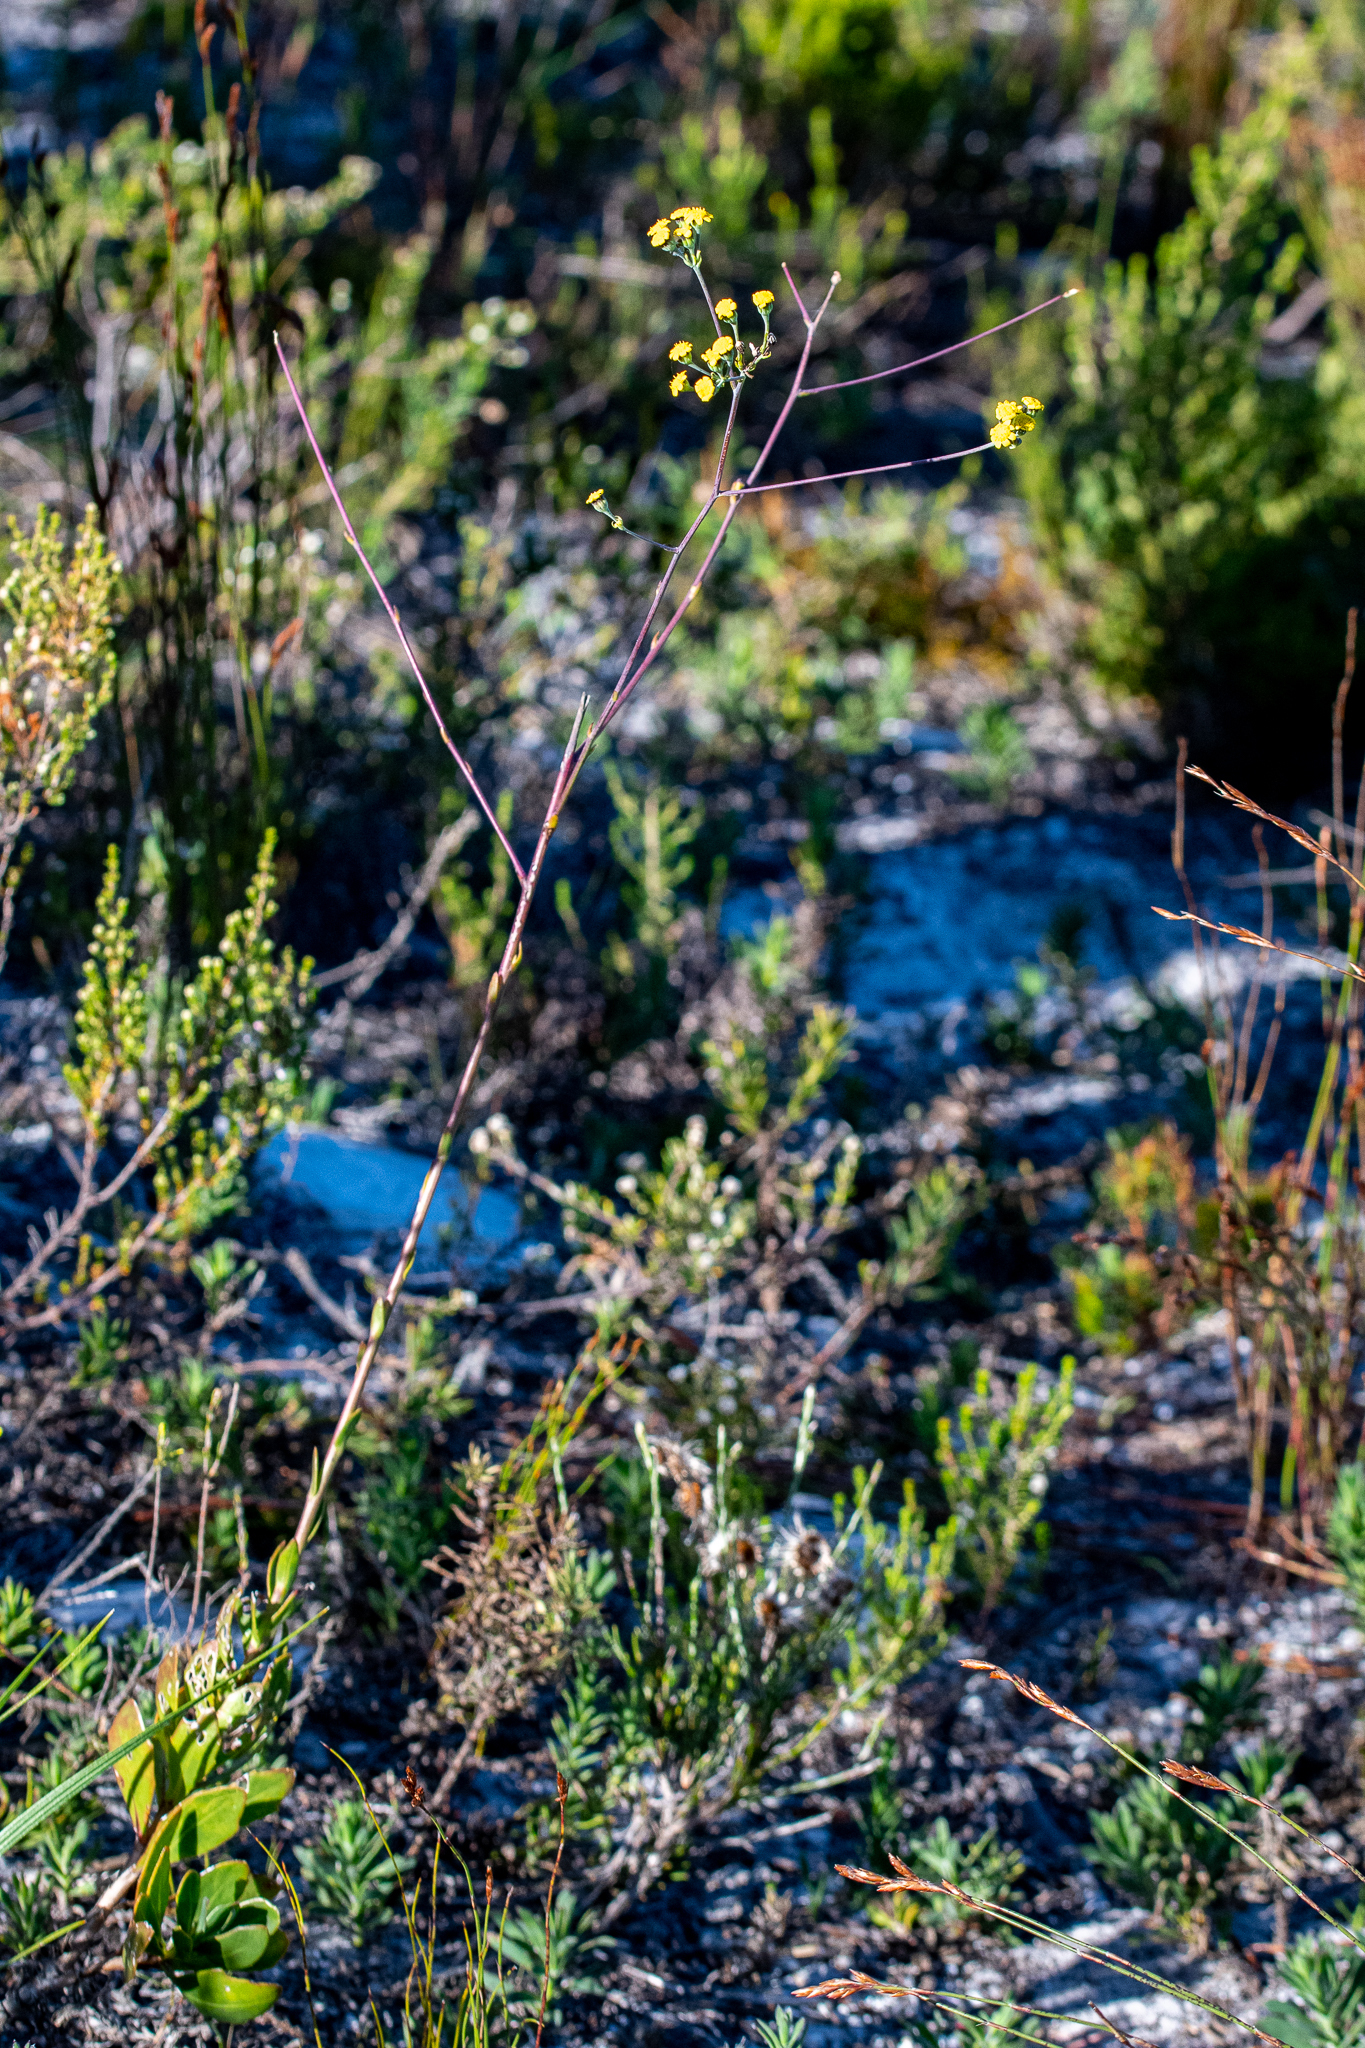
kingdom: Plantae
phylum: Tracheophyta
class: Magnoliopsida
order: Asterales
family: Asteraceae
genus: Othonna
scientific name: Othonna quinquedentata
